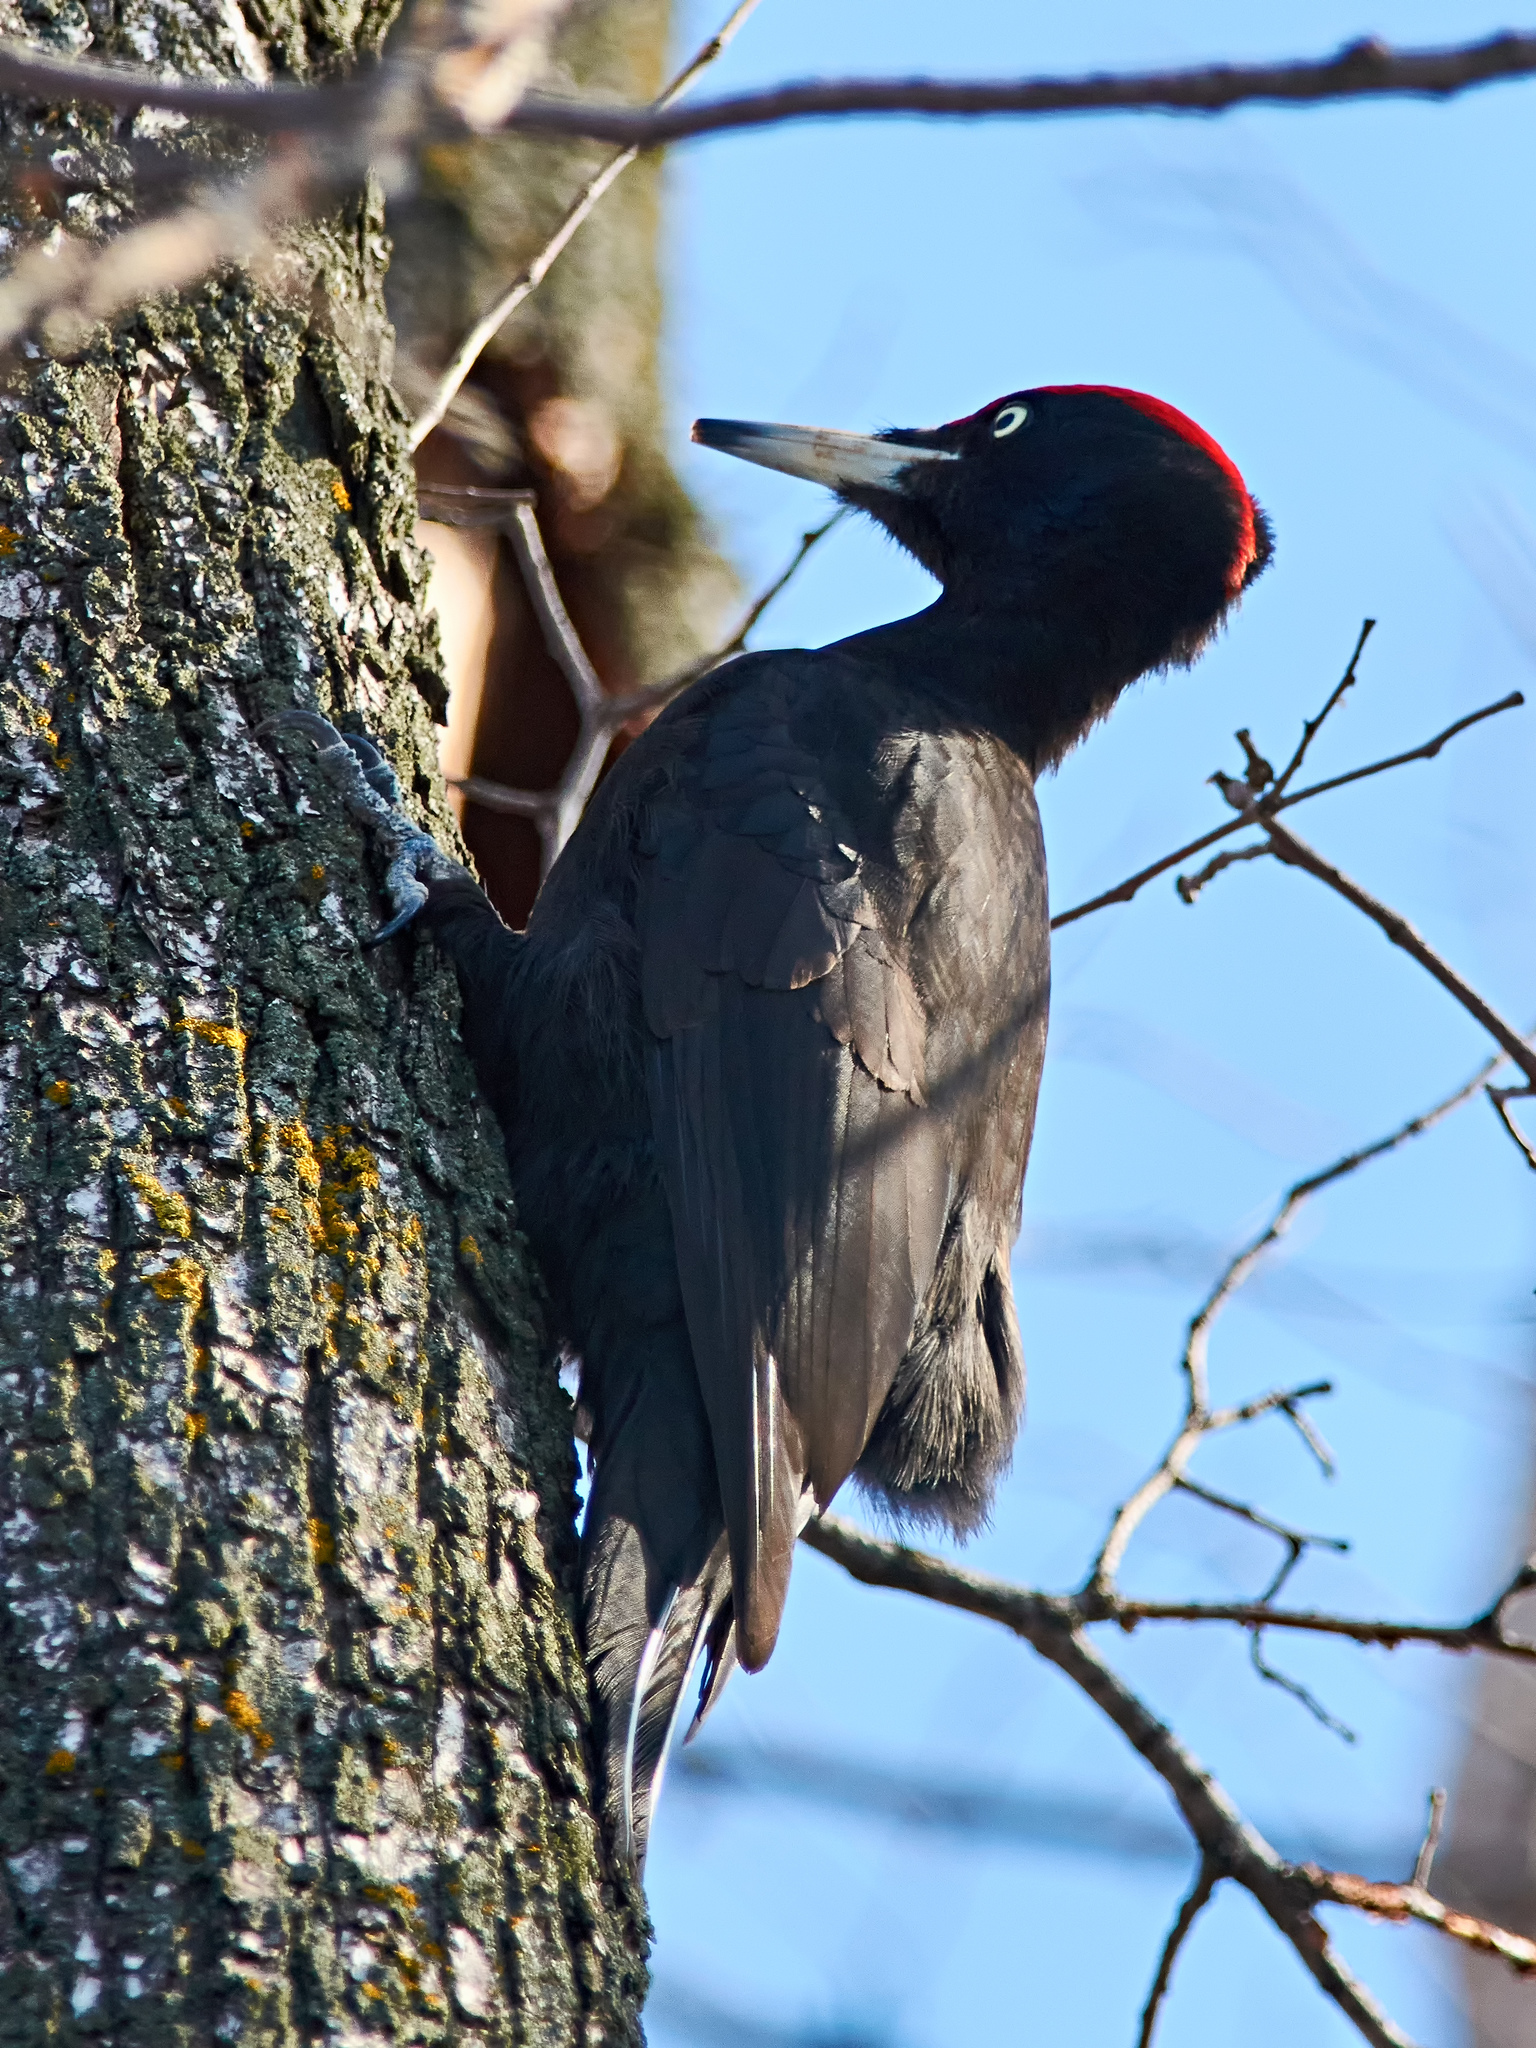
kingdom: Animalia
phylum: Chordata
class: Aves
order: Piciformes
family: Picidae
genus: Dryocopus
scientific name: Dryocopus martius
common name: Black woodpecker
